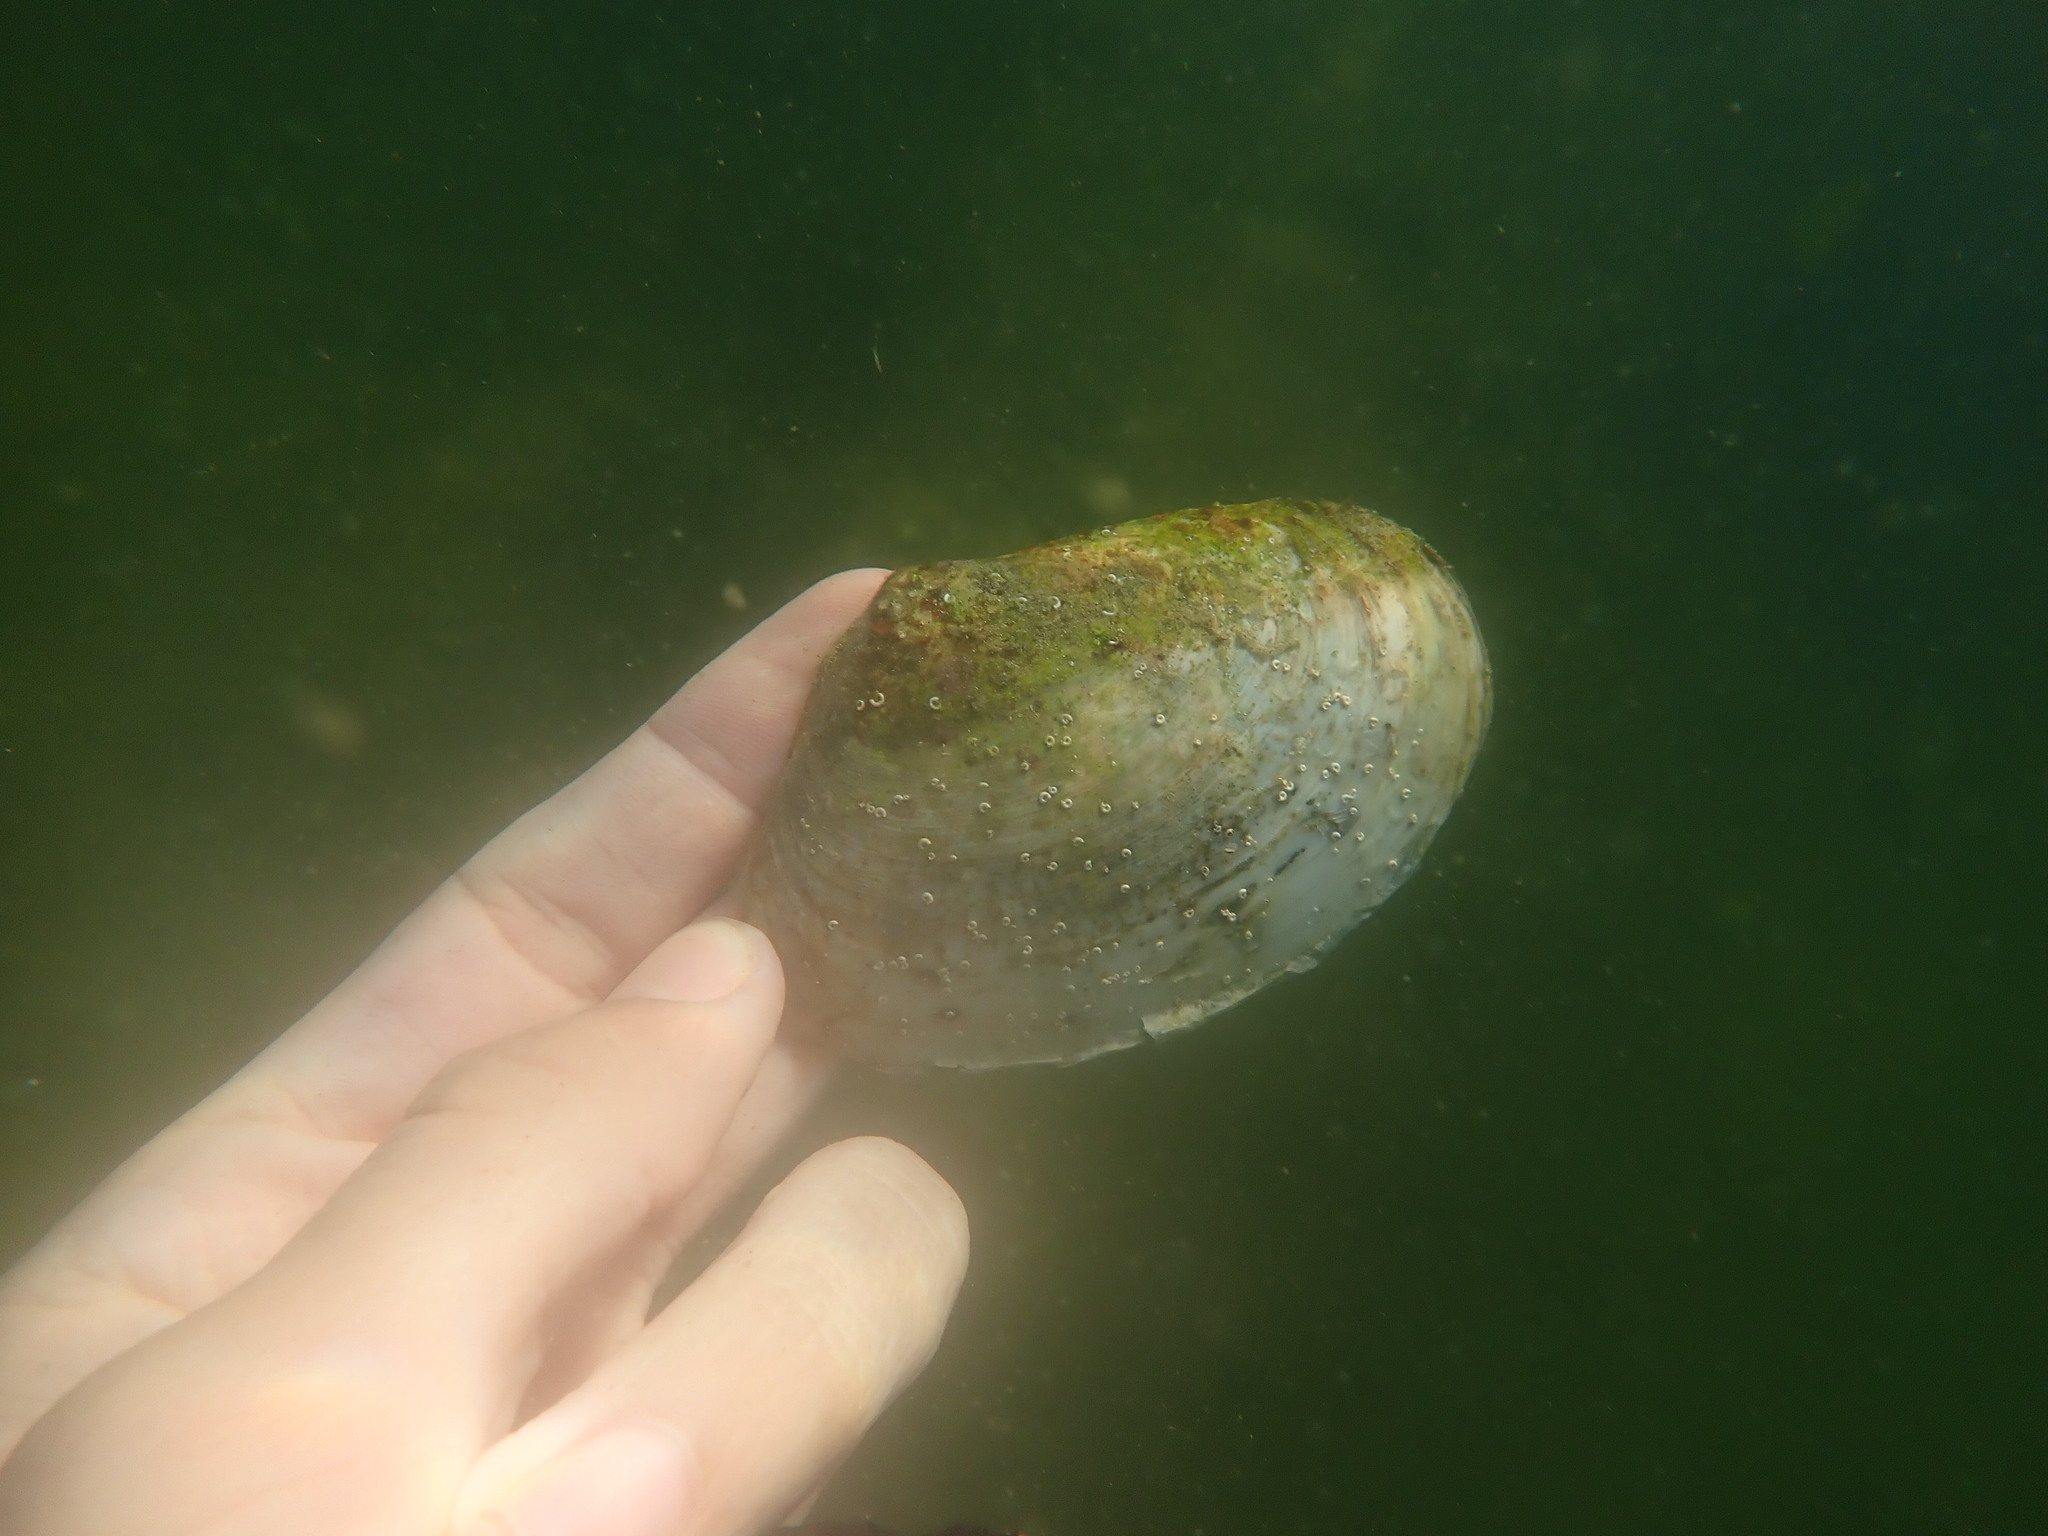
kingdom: Animalia
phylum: Mollusca
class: Bivalvia
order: Venerida
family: Mesodesmatidae
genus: Paphies
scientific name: Paphies ventricosa
